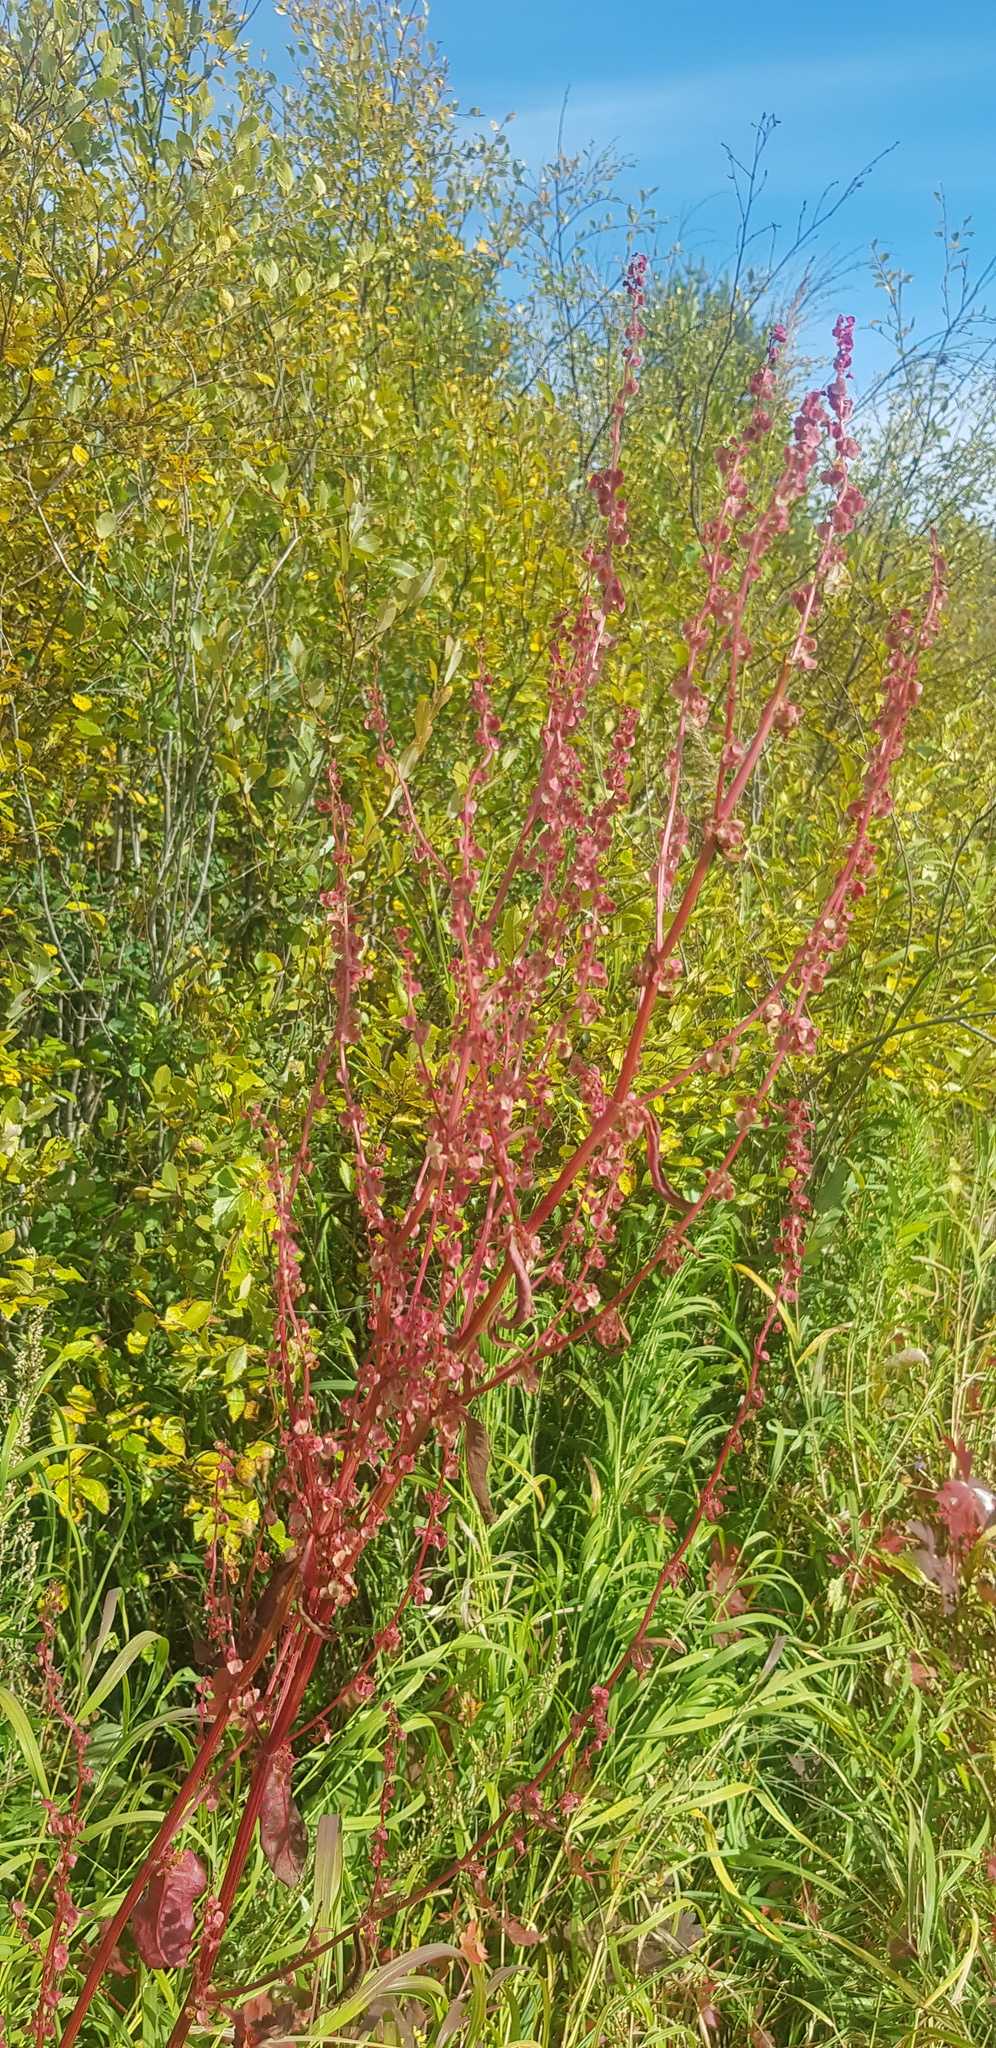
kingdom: Plantae
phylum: Tracheophyta
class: Magnoliopsida
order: Caryophyllales
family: Polygonaceae
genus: Rumex
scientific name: Rumex aquaticus
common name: Scottish dock
